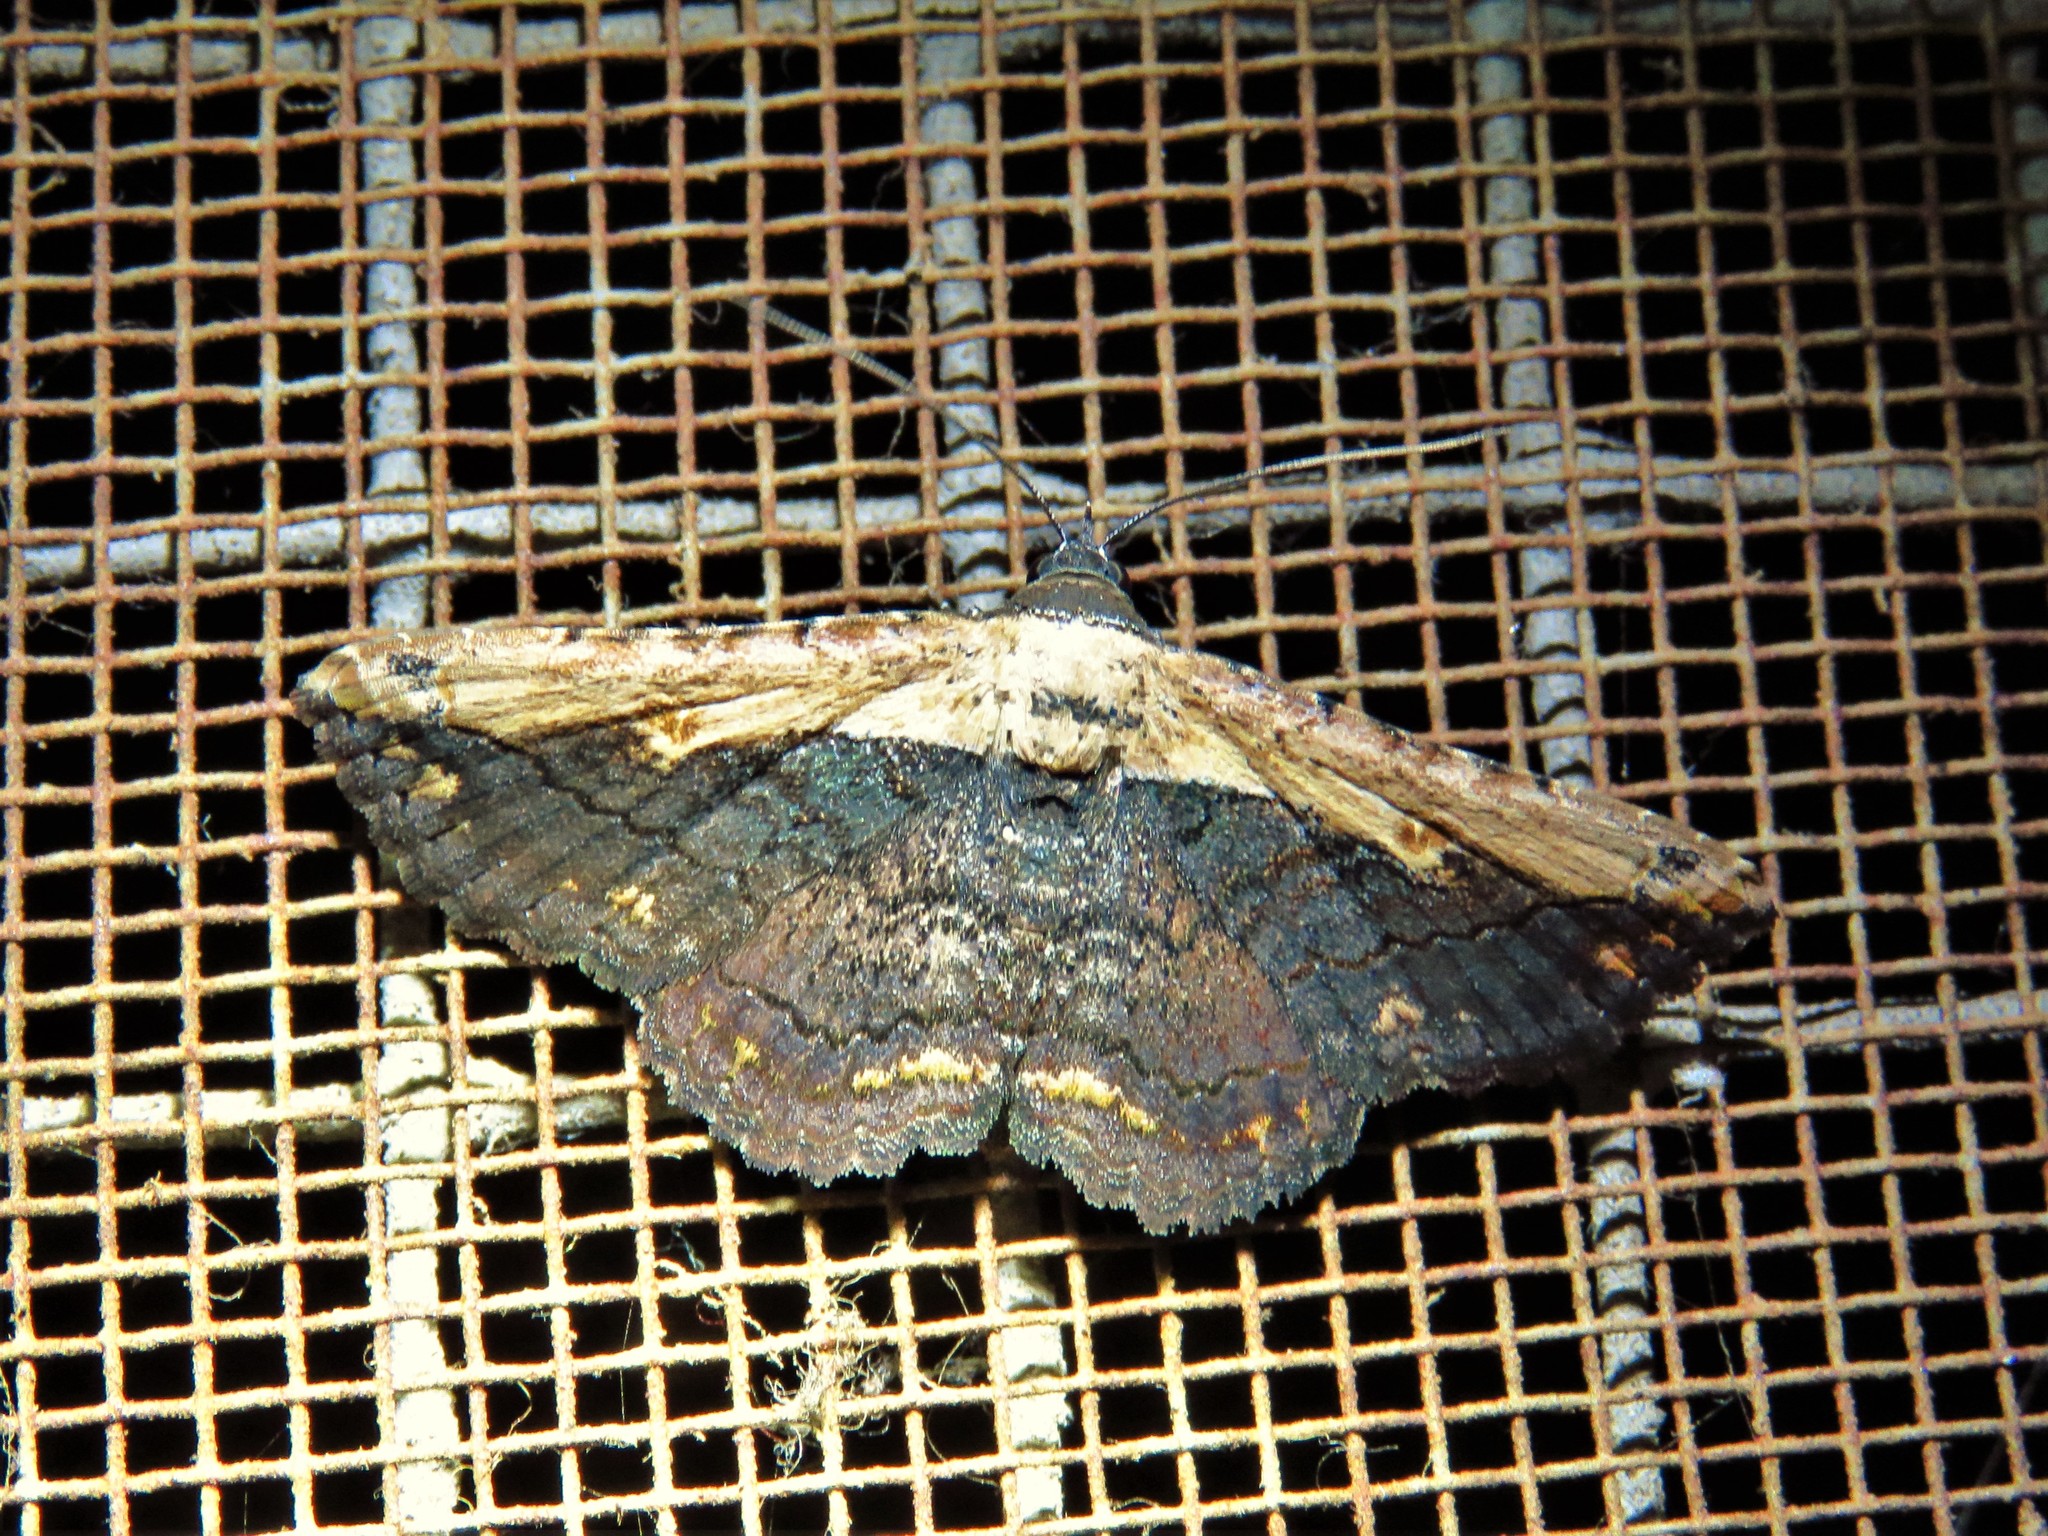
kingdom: Animalia
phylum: Arthropoda
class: Insecta
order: Lepidoptera
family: Erebidae
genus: Selenisa
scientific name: Selenisa sueroides
